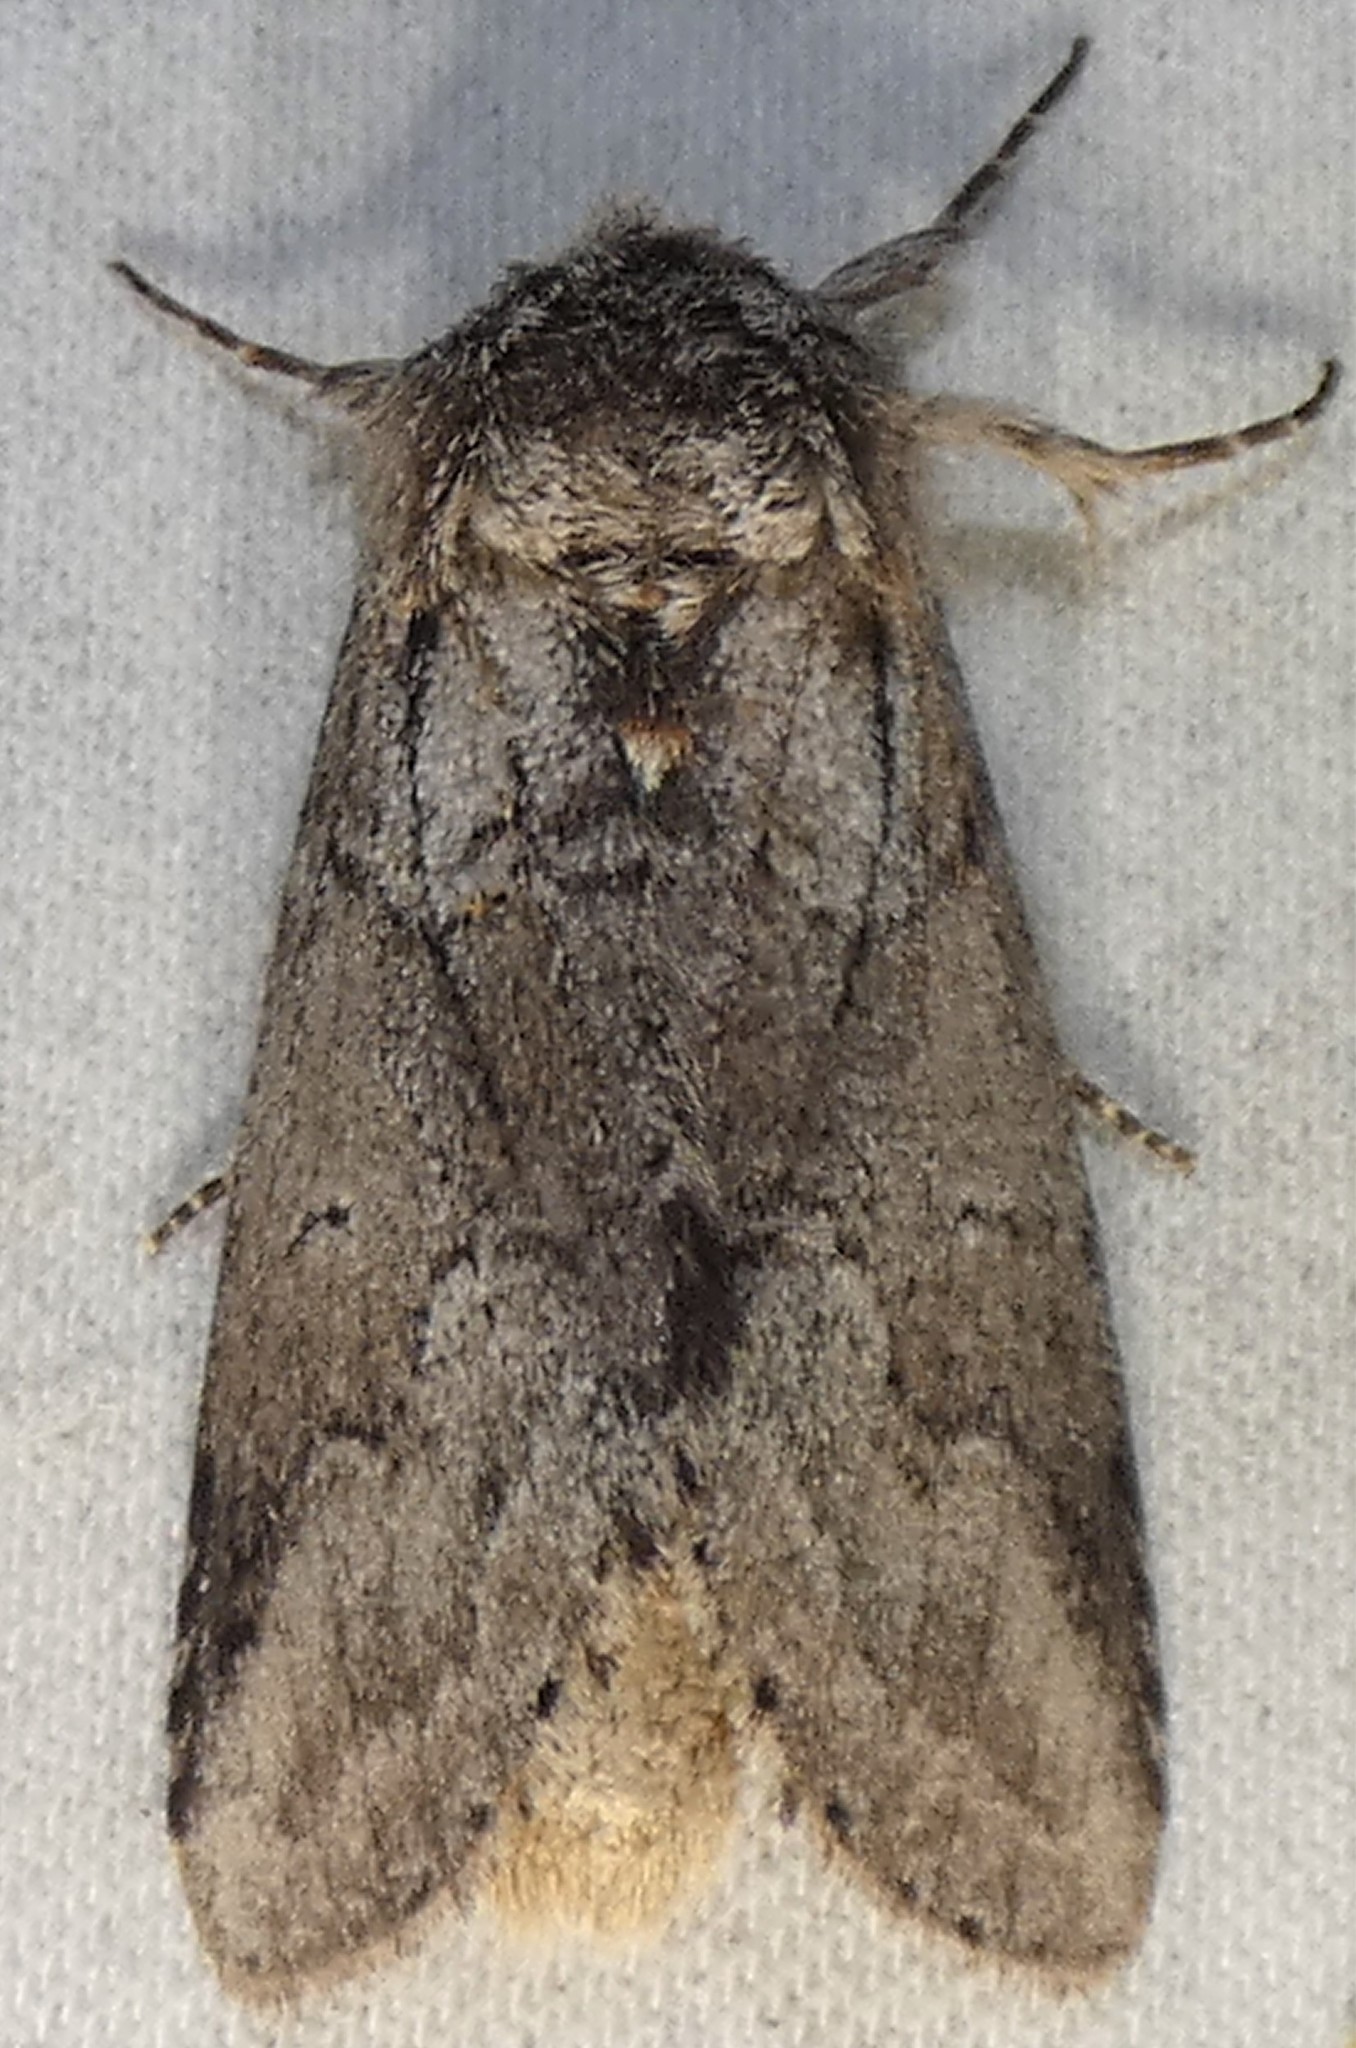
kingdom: Animalia
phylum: Arthropoda
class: Insecta
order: Lepidoptera
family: Notodontidae
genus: Lochmaeus
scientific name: Lochmaeus bilineata
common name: Double-lined prominent
